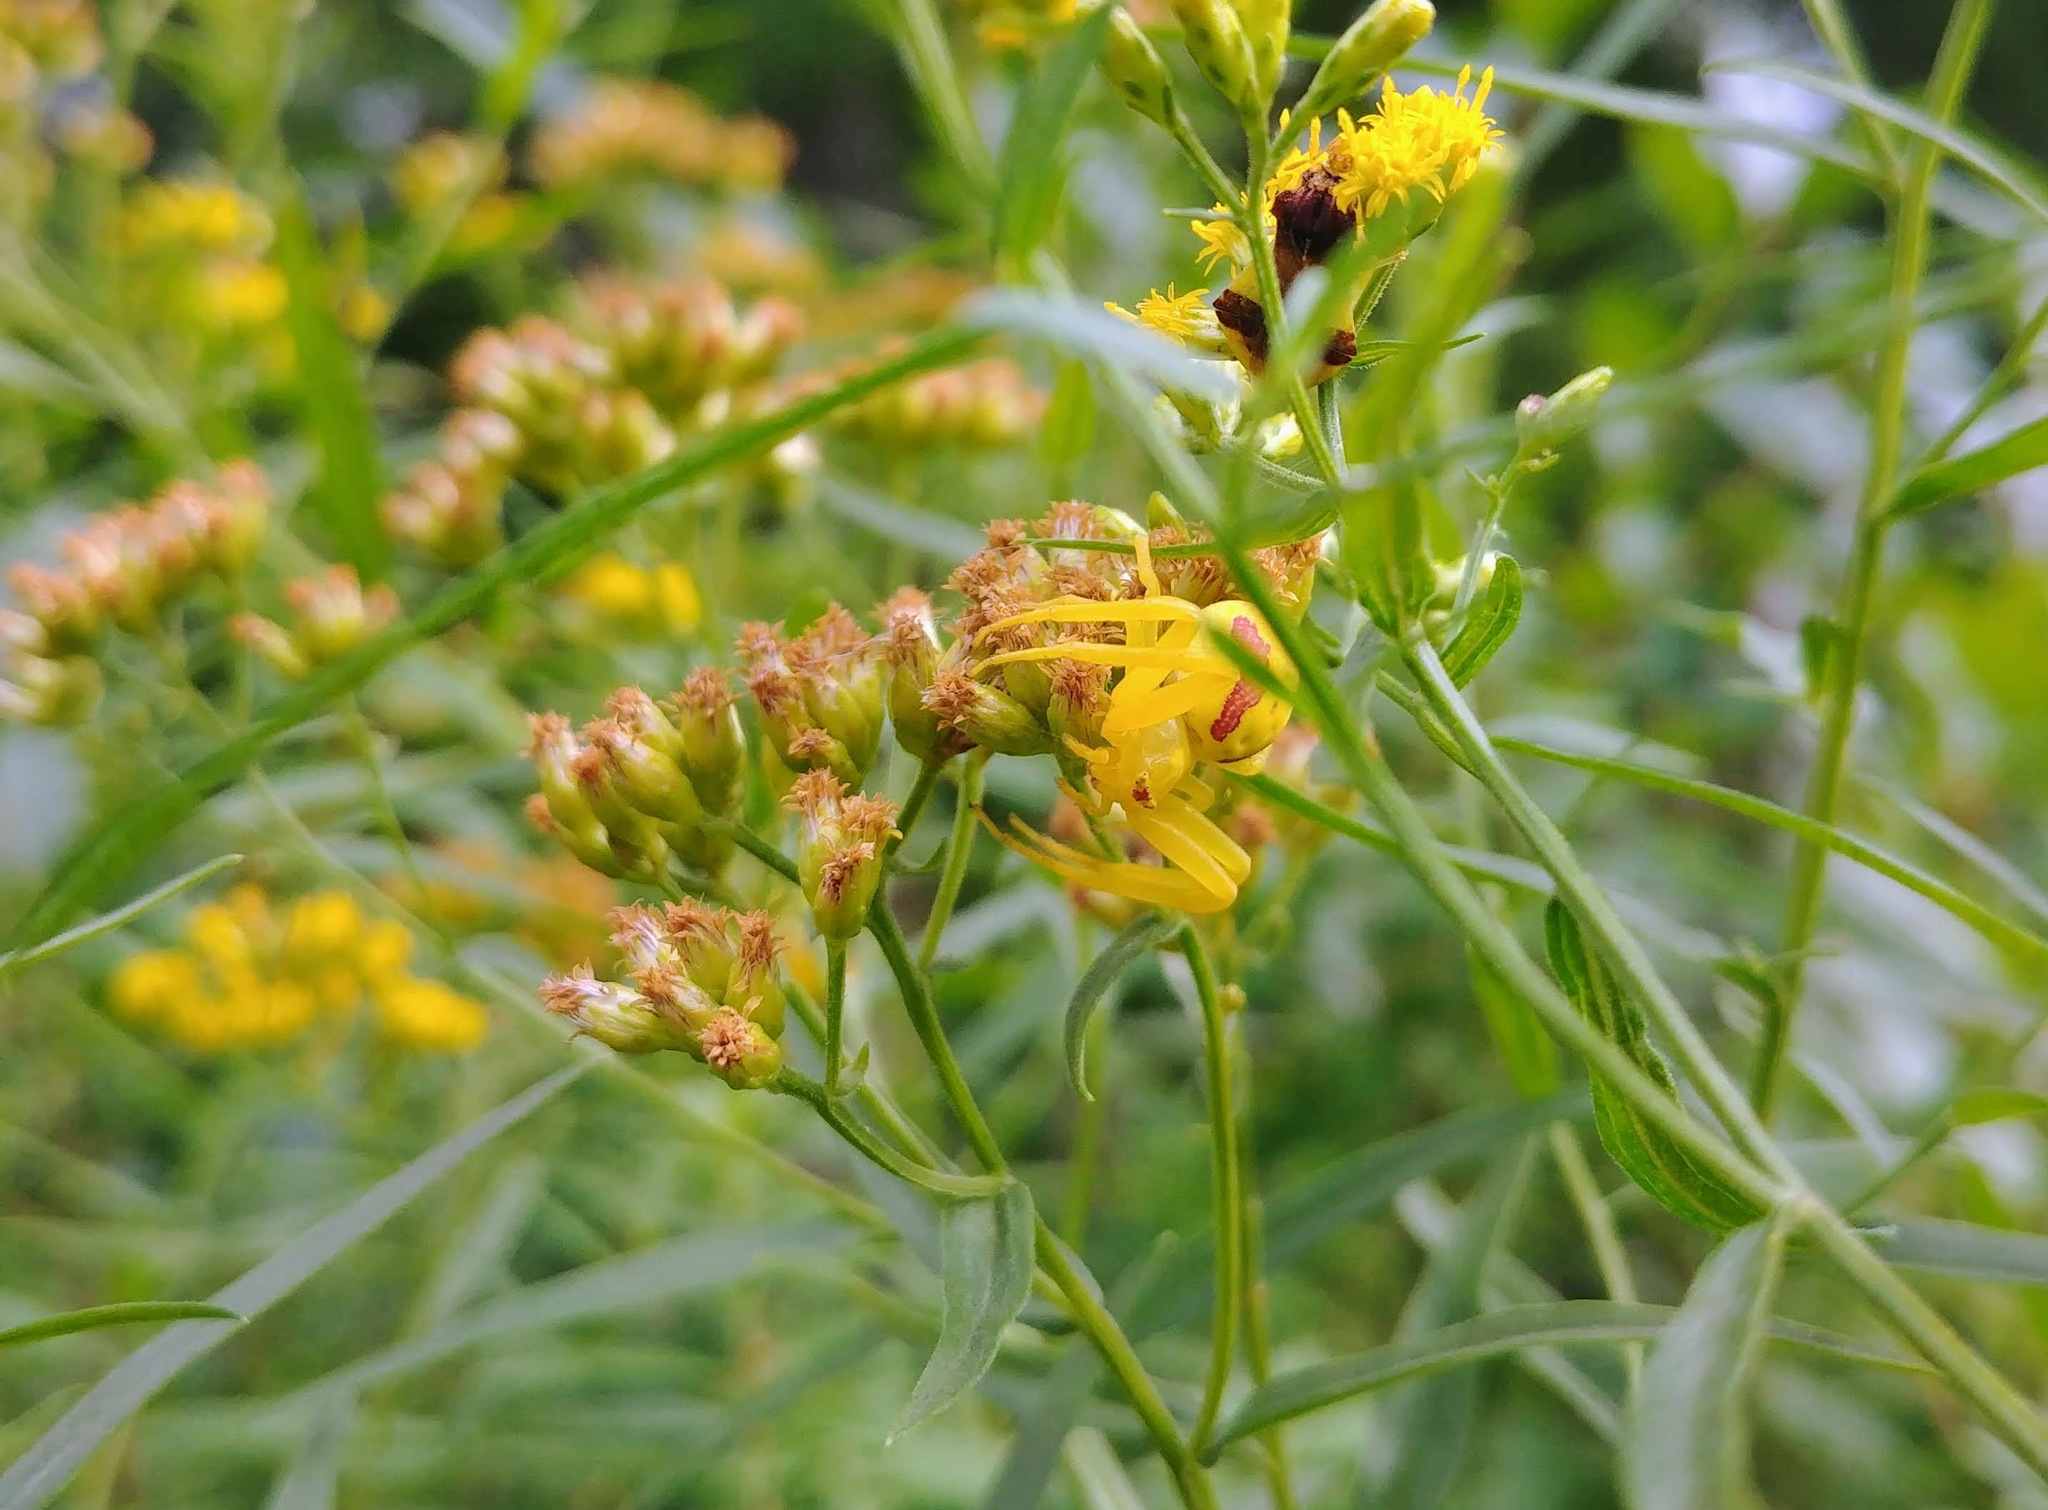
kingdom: Animalia
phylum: Arthropoda
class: Arachnida
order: Araneae
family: Thomisidae
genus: Misumena
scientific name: Misumena vatia
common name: Goldenrod crab spider
